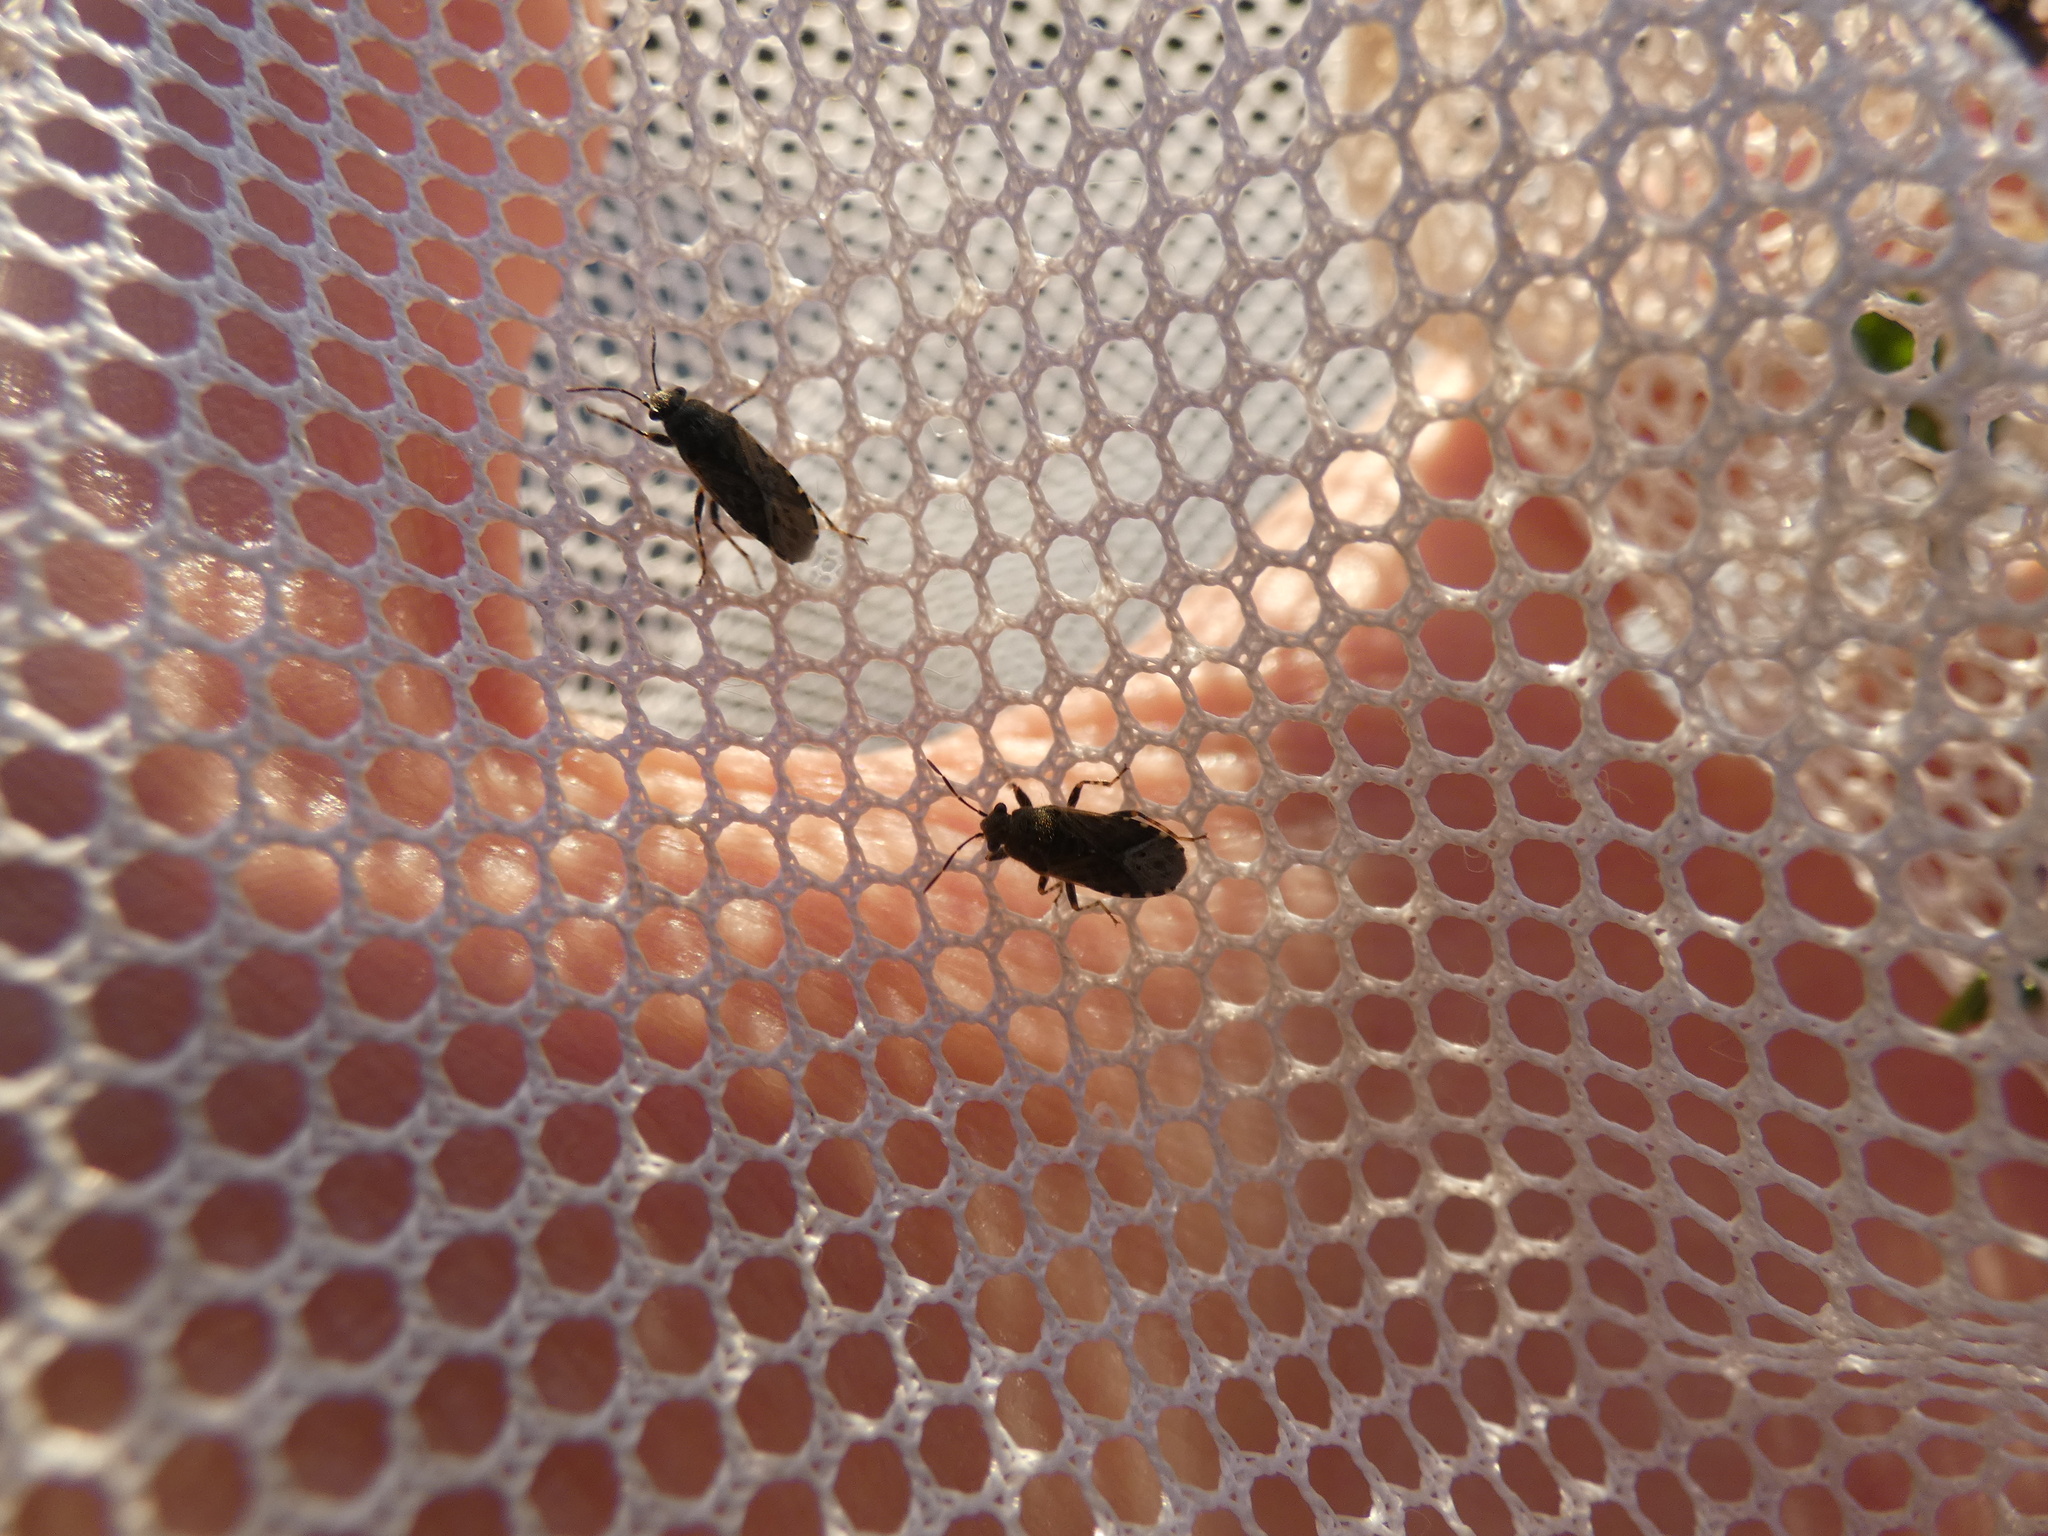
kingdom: Animalia
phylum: Arthropoda
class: Insecta
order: Hemiptera
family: Heterogastridae
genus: Heterogaster
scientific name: Heterogaster urticae
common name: Seed bug
